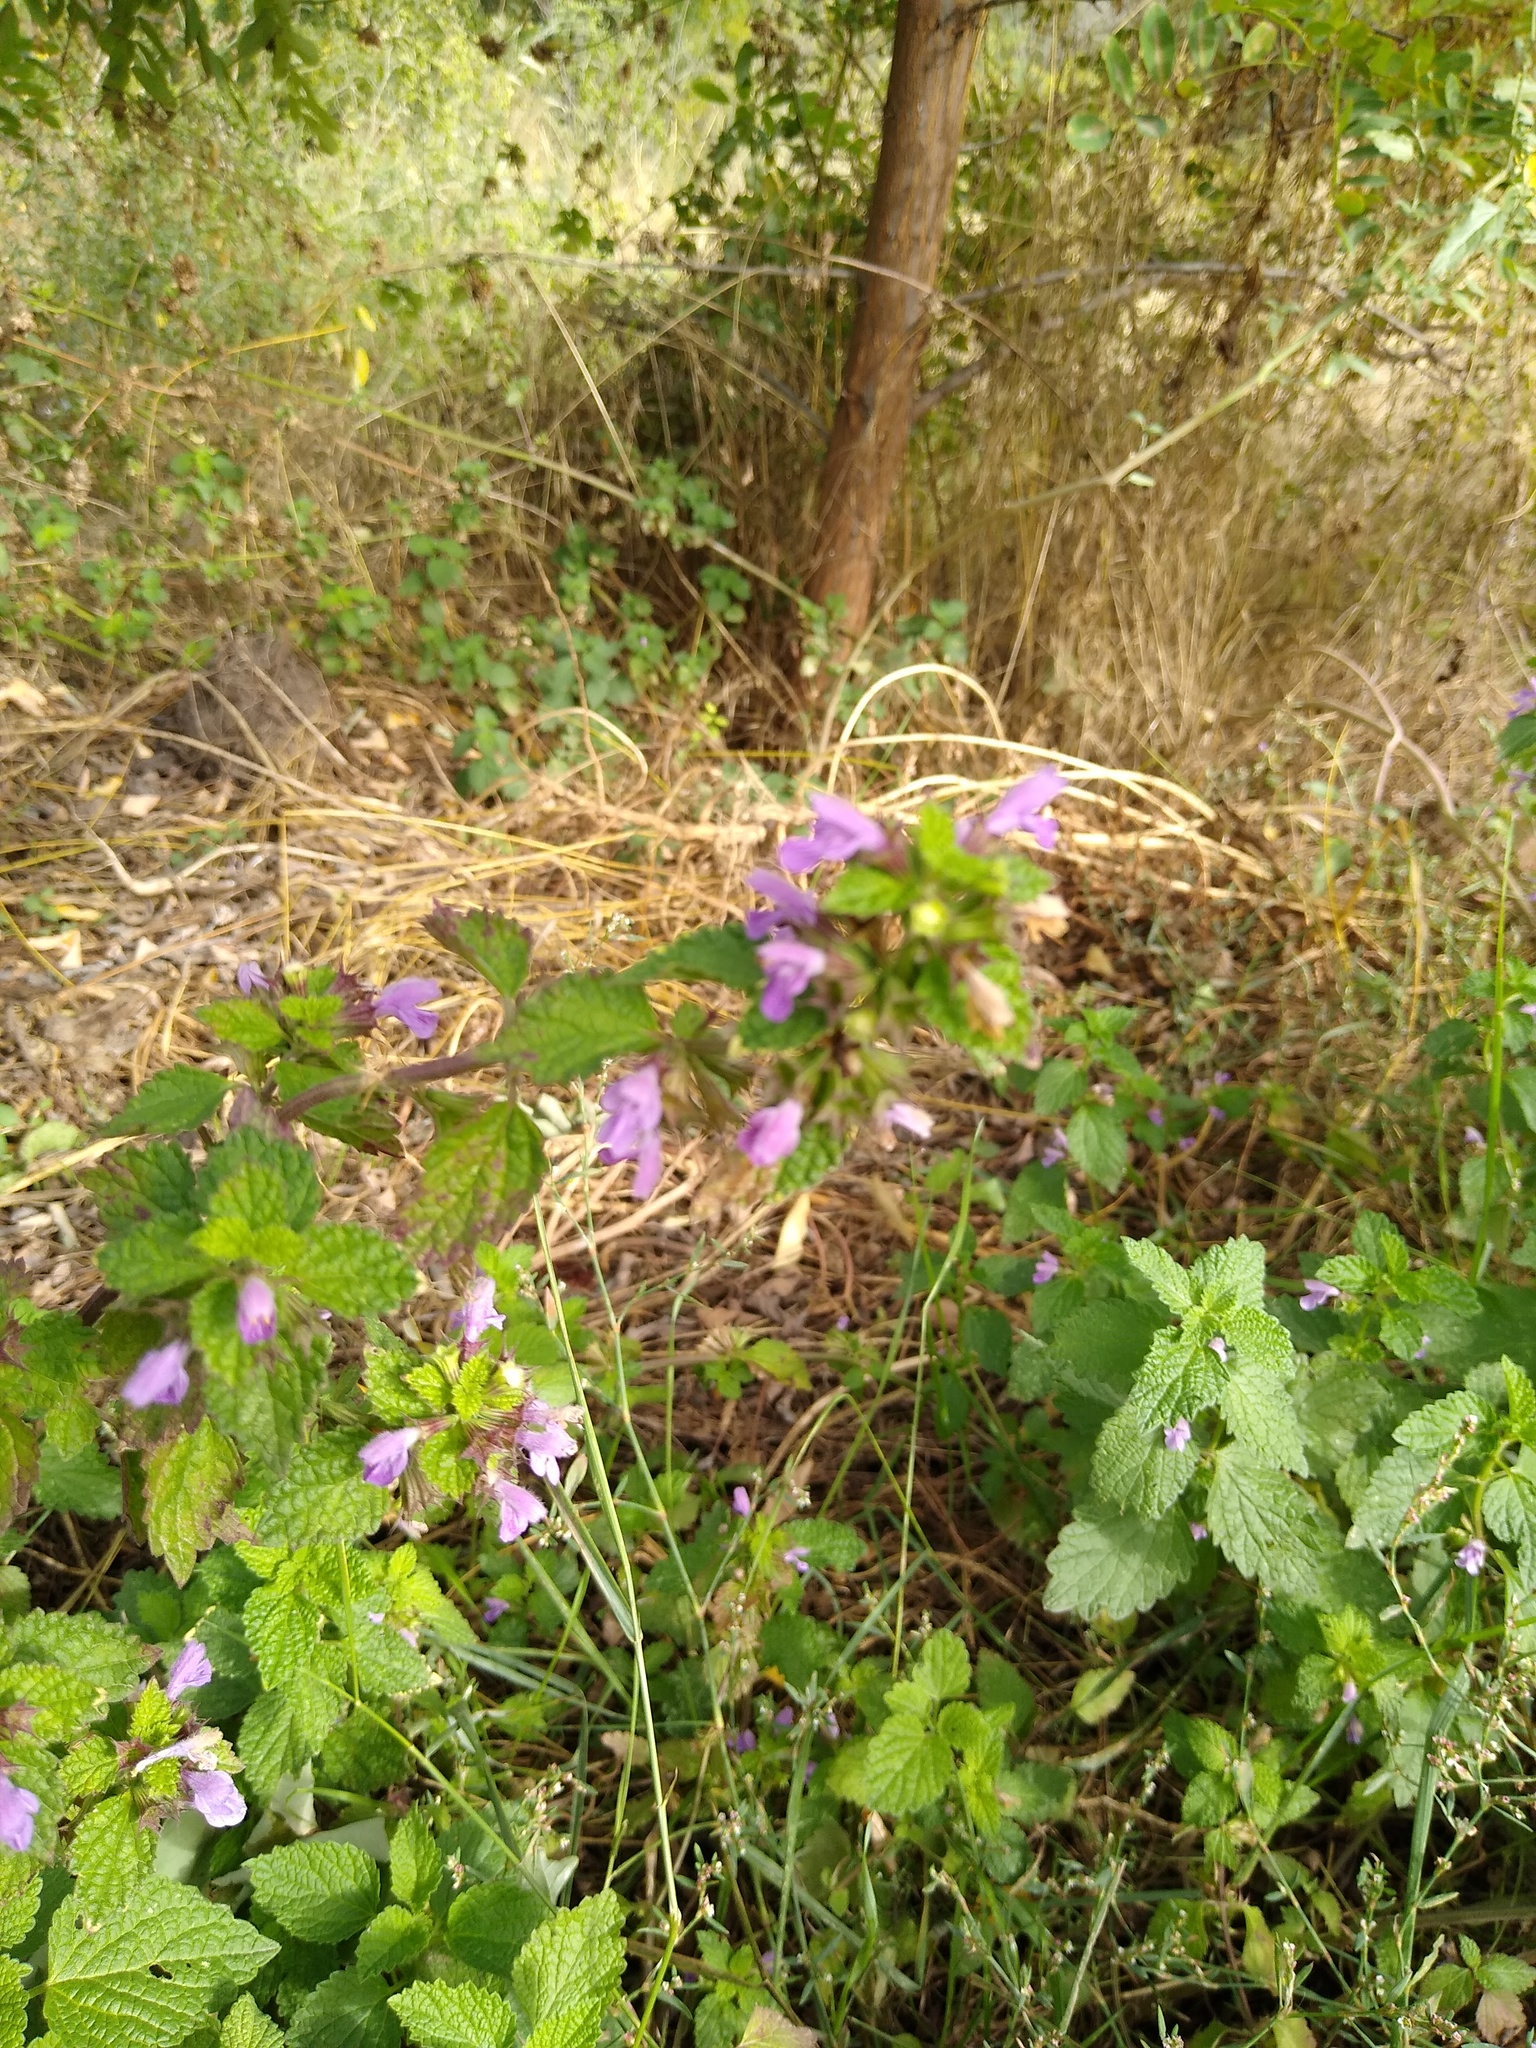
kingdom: Plantae
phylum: Tracheophyta
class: Magnoliopsida
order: Lamiales
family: Lamiaceae
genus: Ballota
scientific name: Ballota nigra
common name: Black horehound
